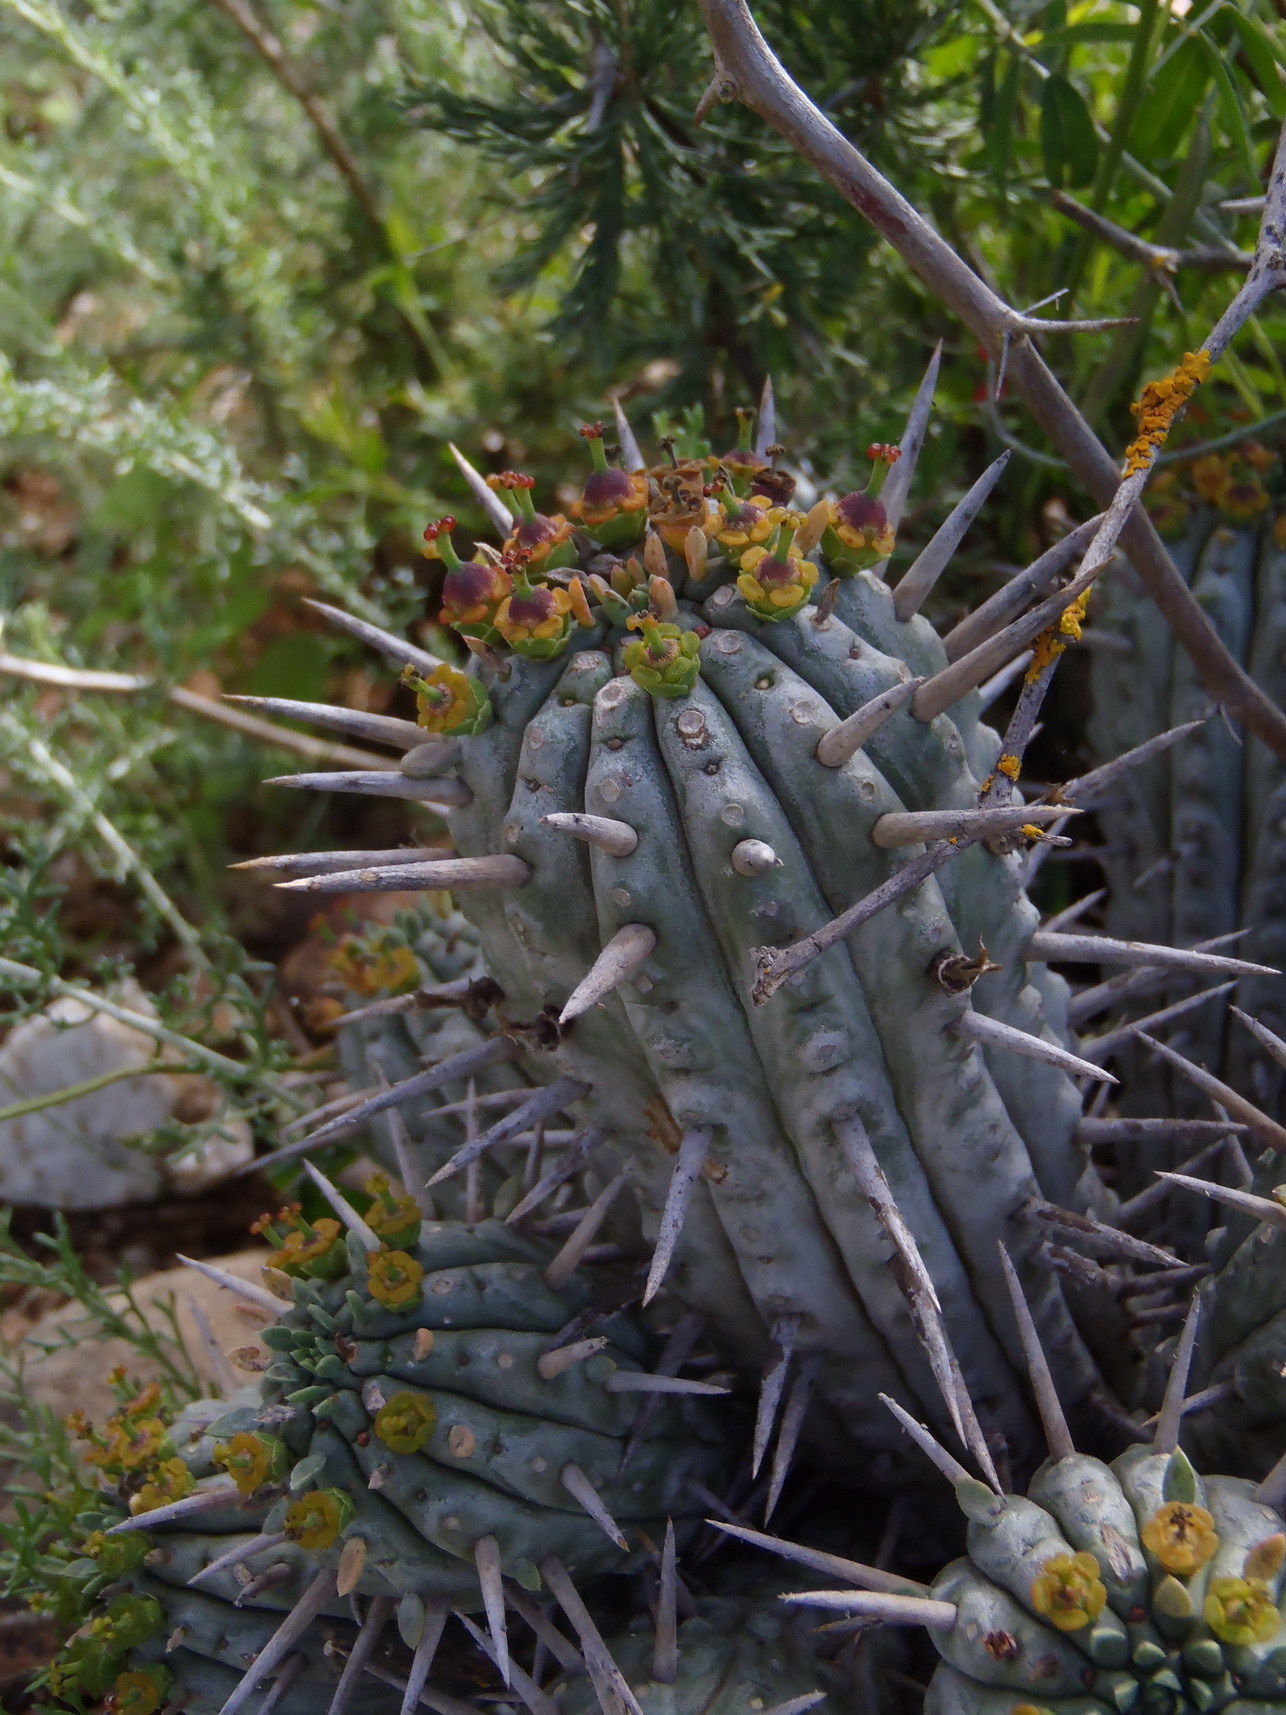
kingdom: Plantae
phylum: Tracheophyta
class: Magnoliopsida
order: Malpighiales
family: Euphorbiaceae
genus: Euphorbia
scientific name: Euphorbia ferox
